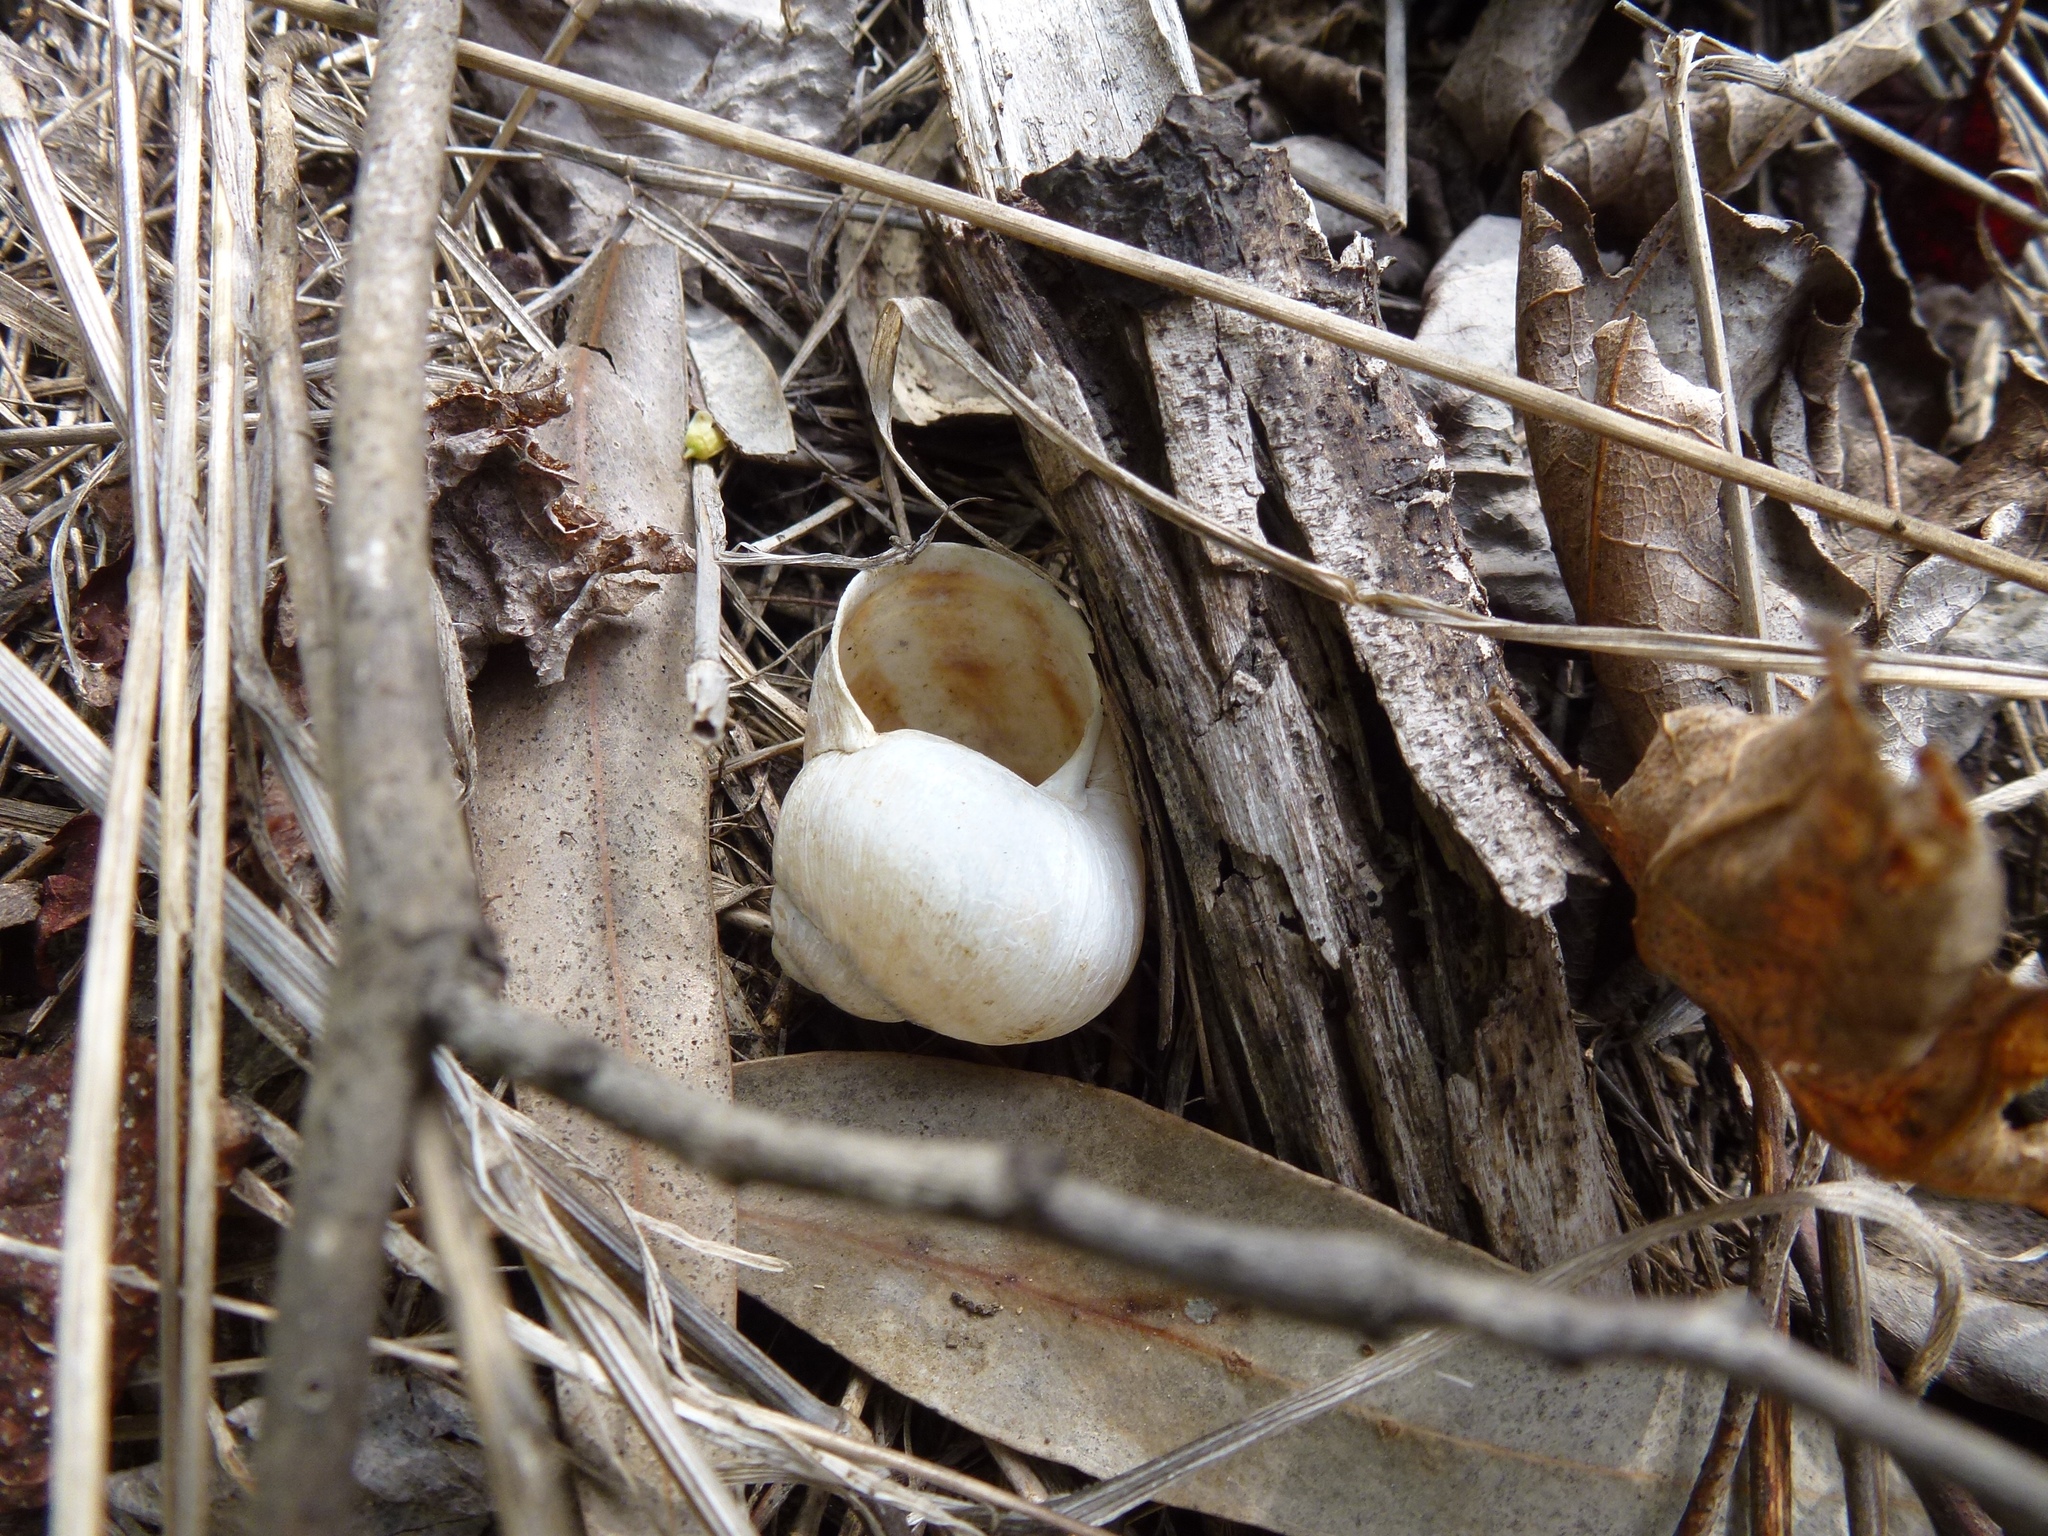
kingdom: Animalia
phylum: Mollusca
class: Gastropoda
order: Stylommatophora
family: Helicidae
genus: Cornu
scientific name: Cornu aspersum
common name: Brown garden snail
